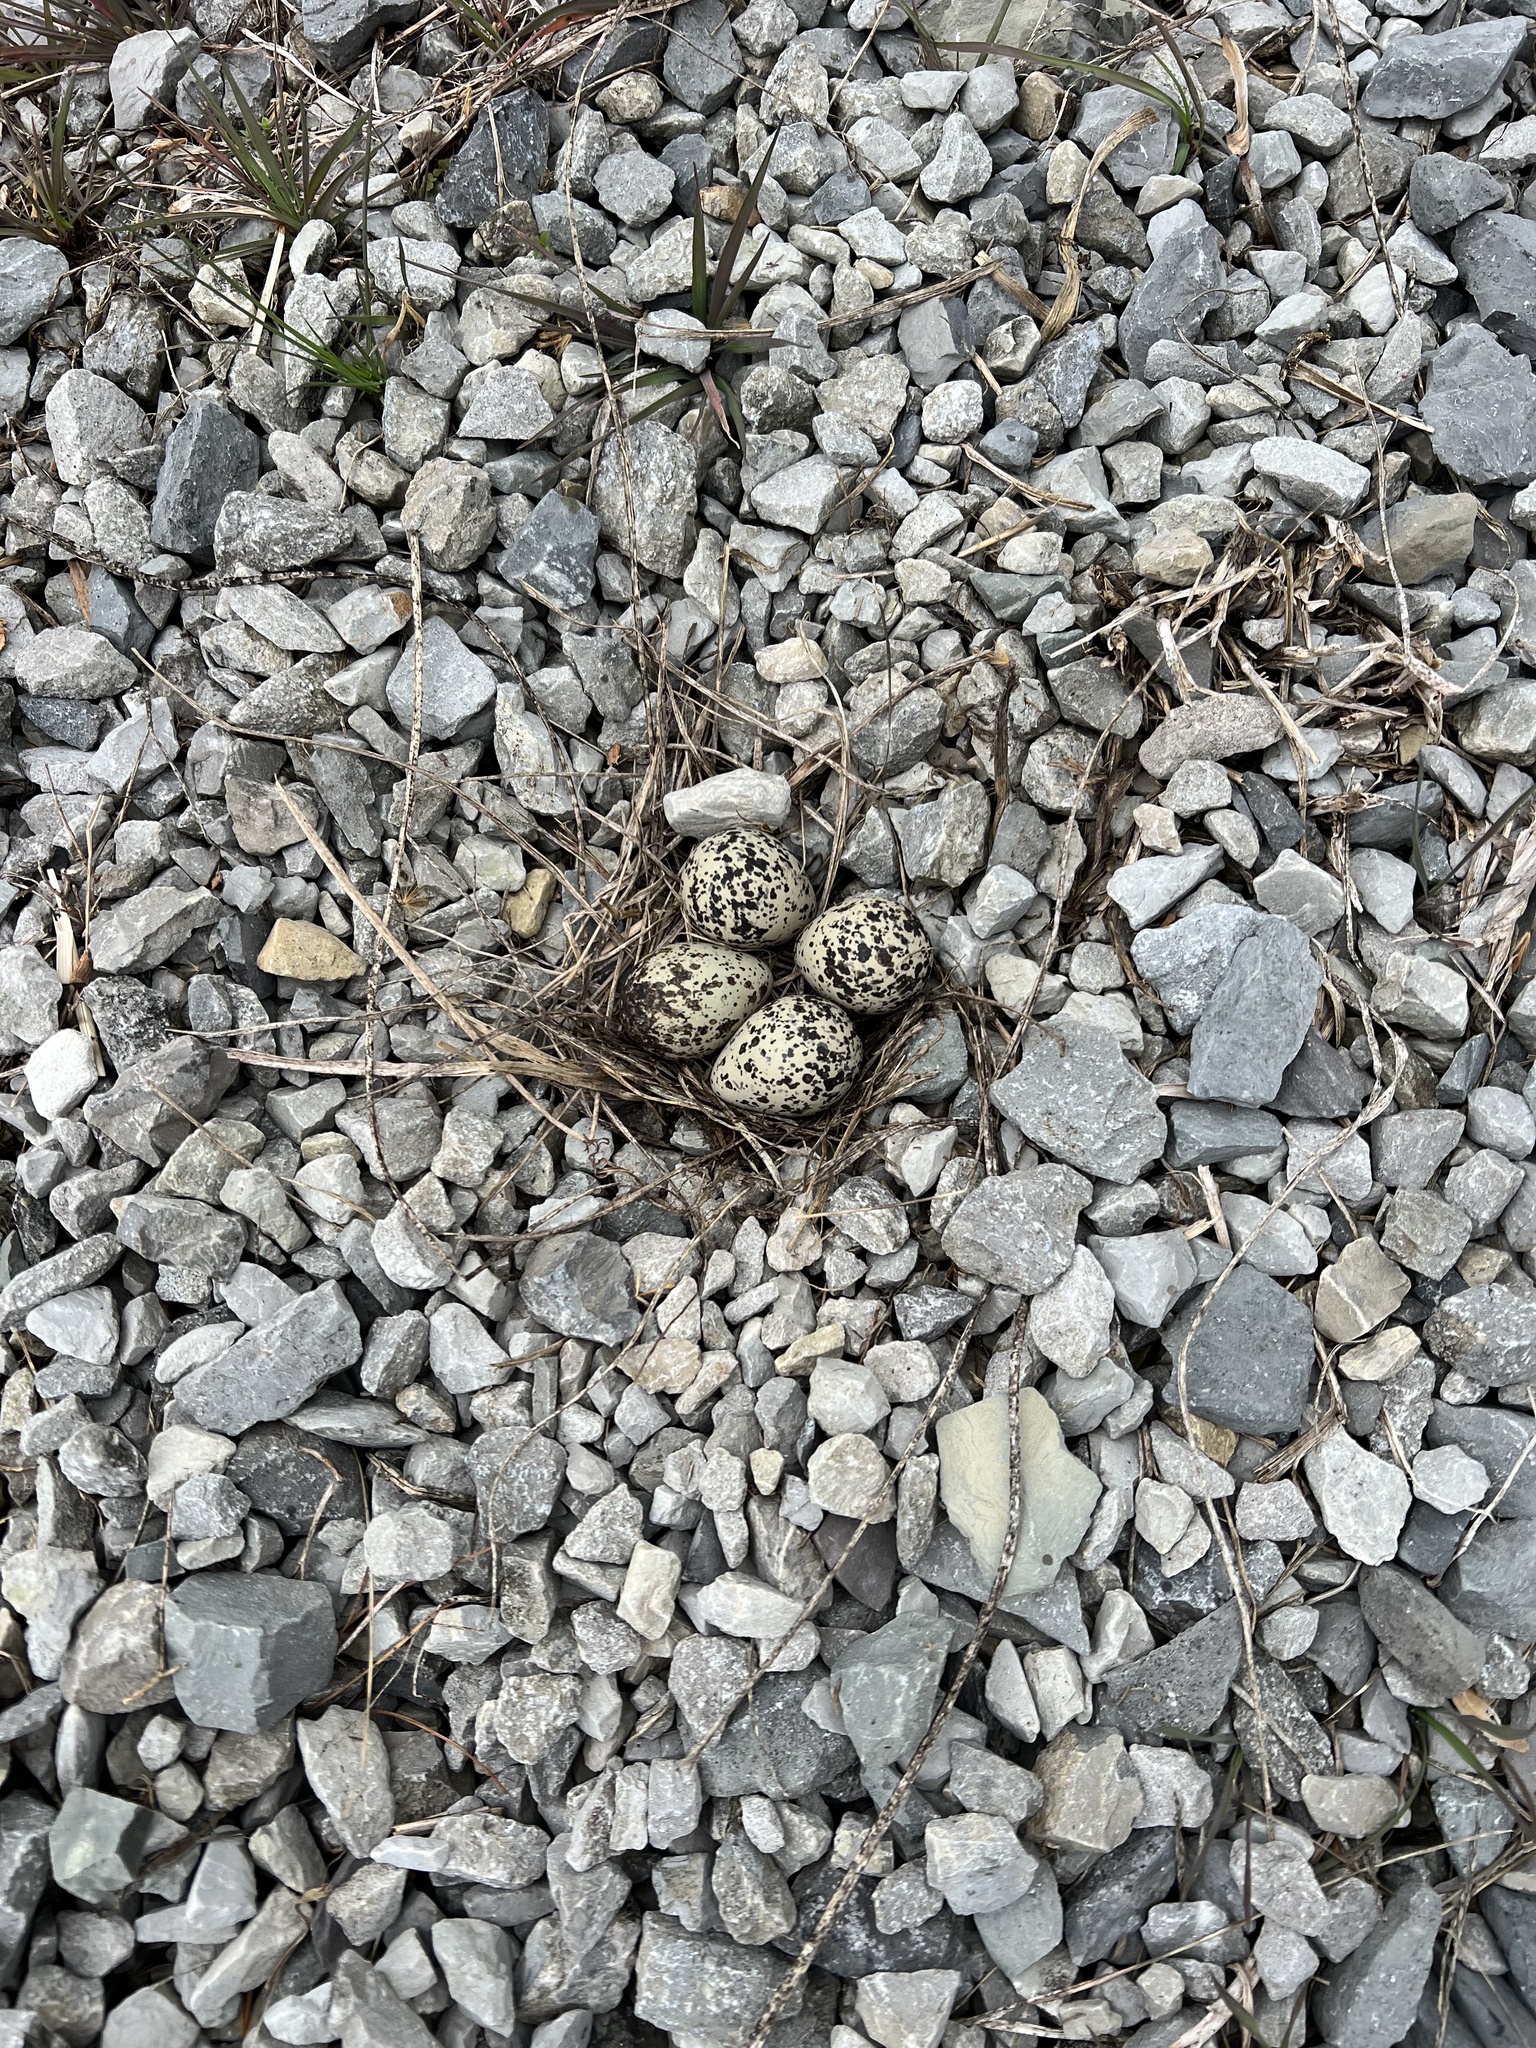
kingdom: Animalia
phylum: Chordata
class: Aves
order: Charadriiformes
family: Charadriidae
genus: Charadrius
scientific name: Charadrius vociferus
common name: Killdeer
